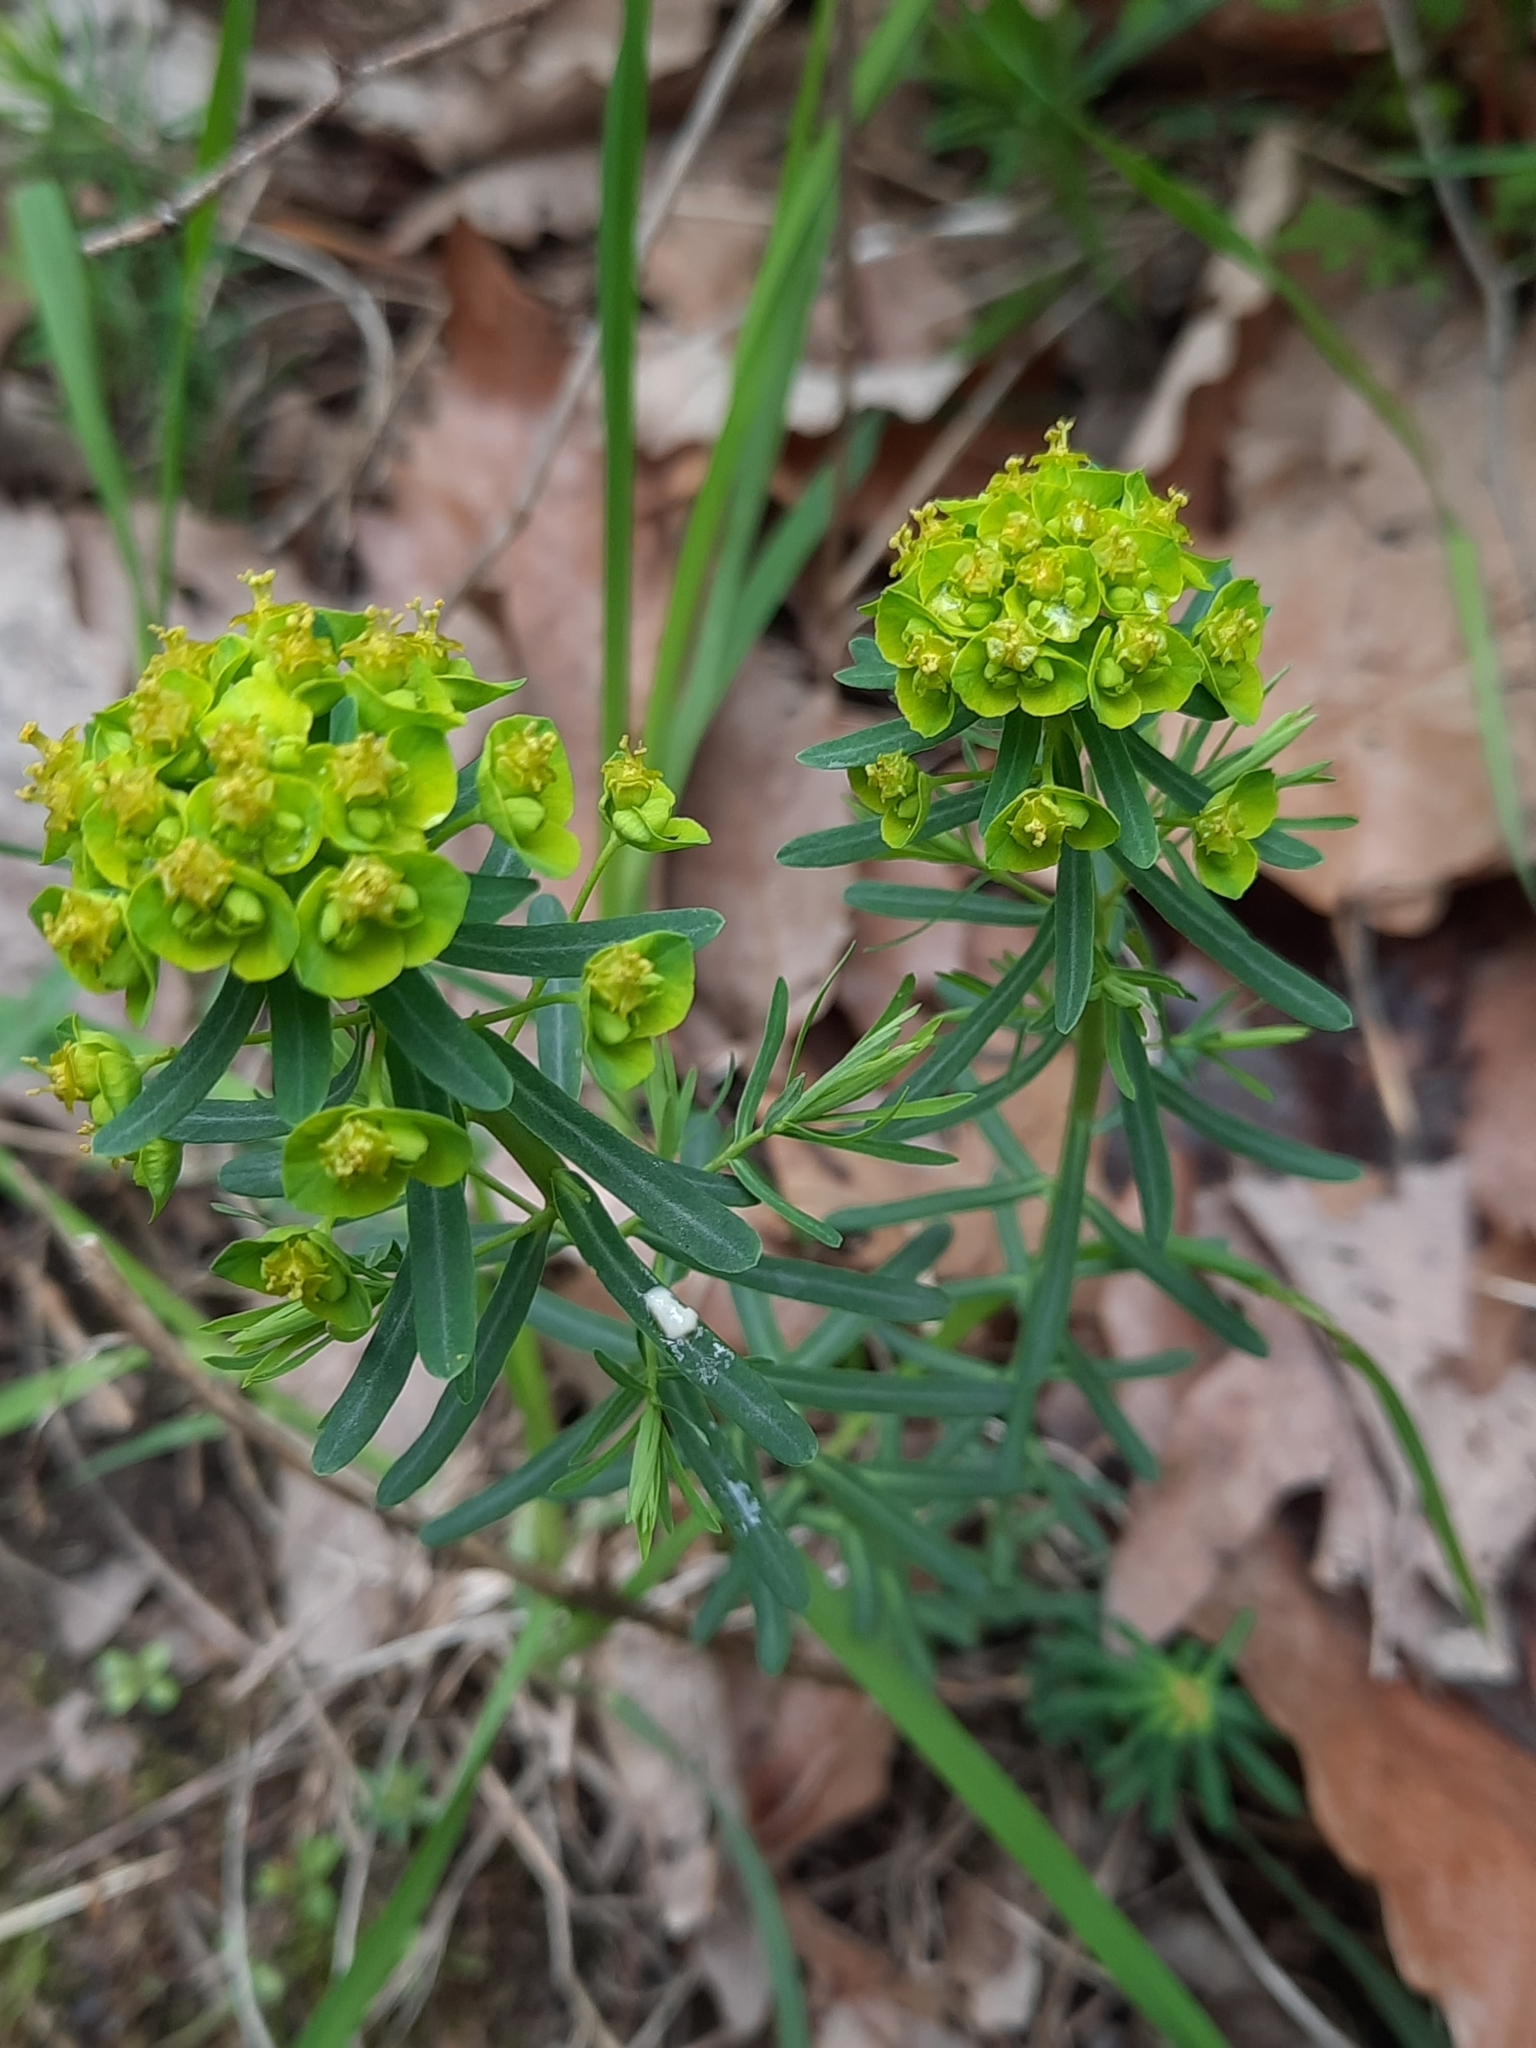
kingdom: Plantae
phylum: Tracheophyta
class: Magnoliopsida
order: Malpighiales
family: Euphorbiaceae
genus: Euphorbia
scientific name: Euphorbia cyparissias
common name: Cypress spurge
